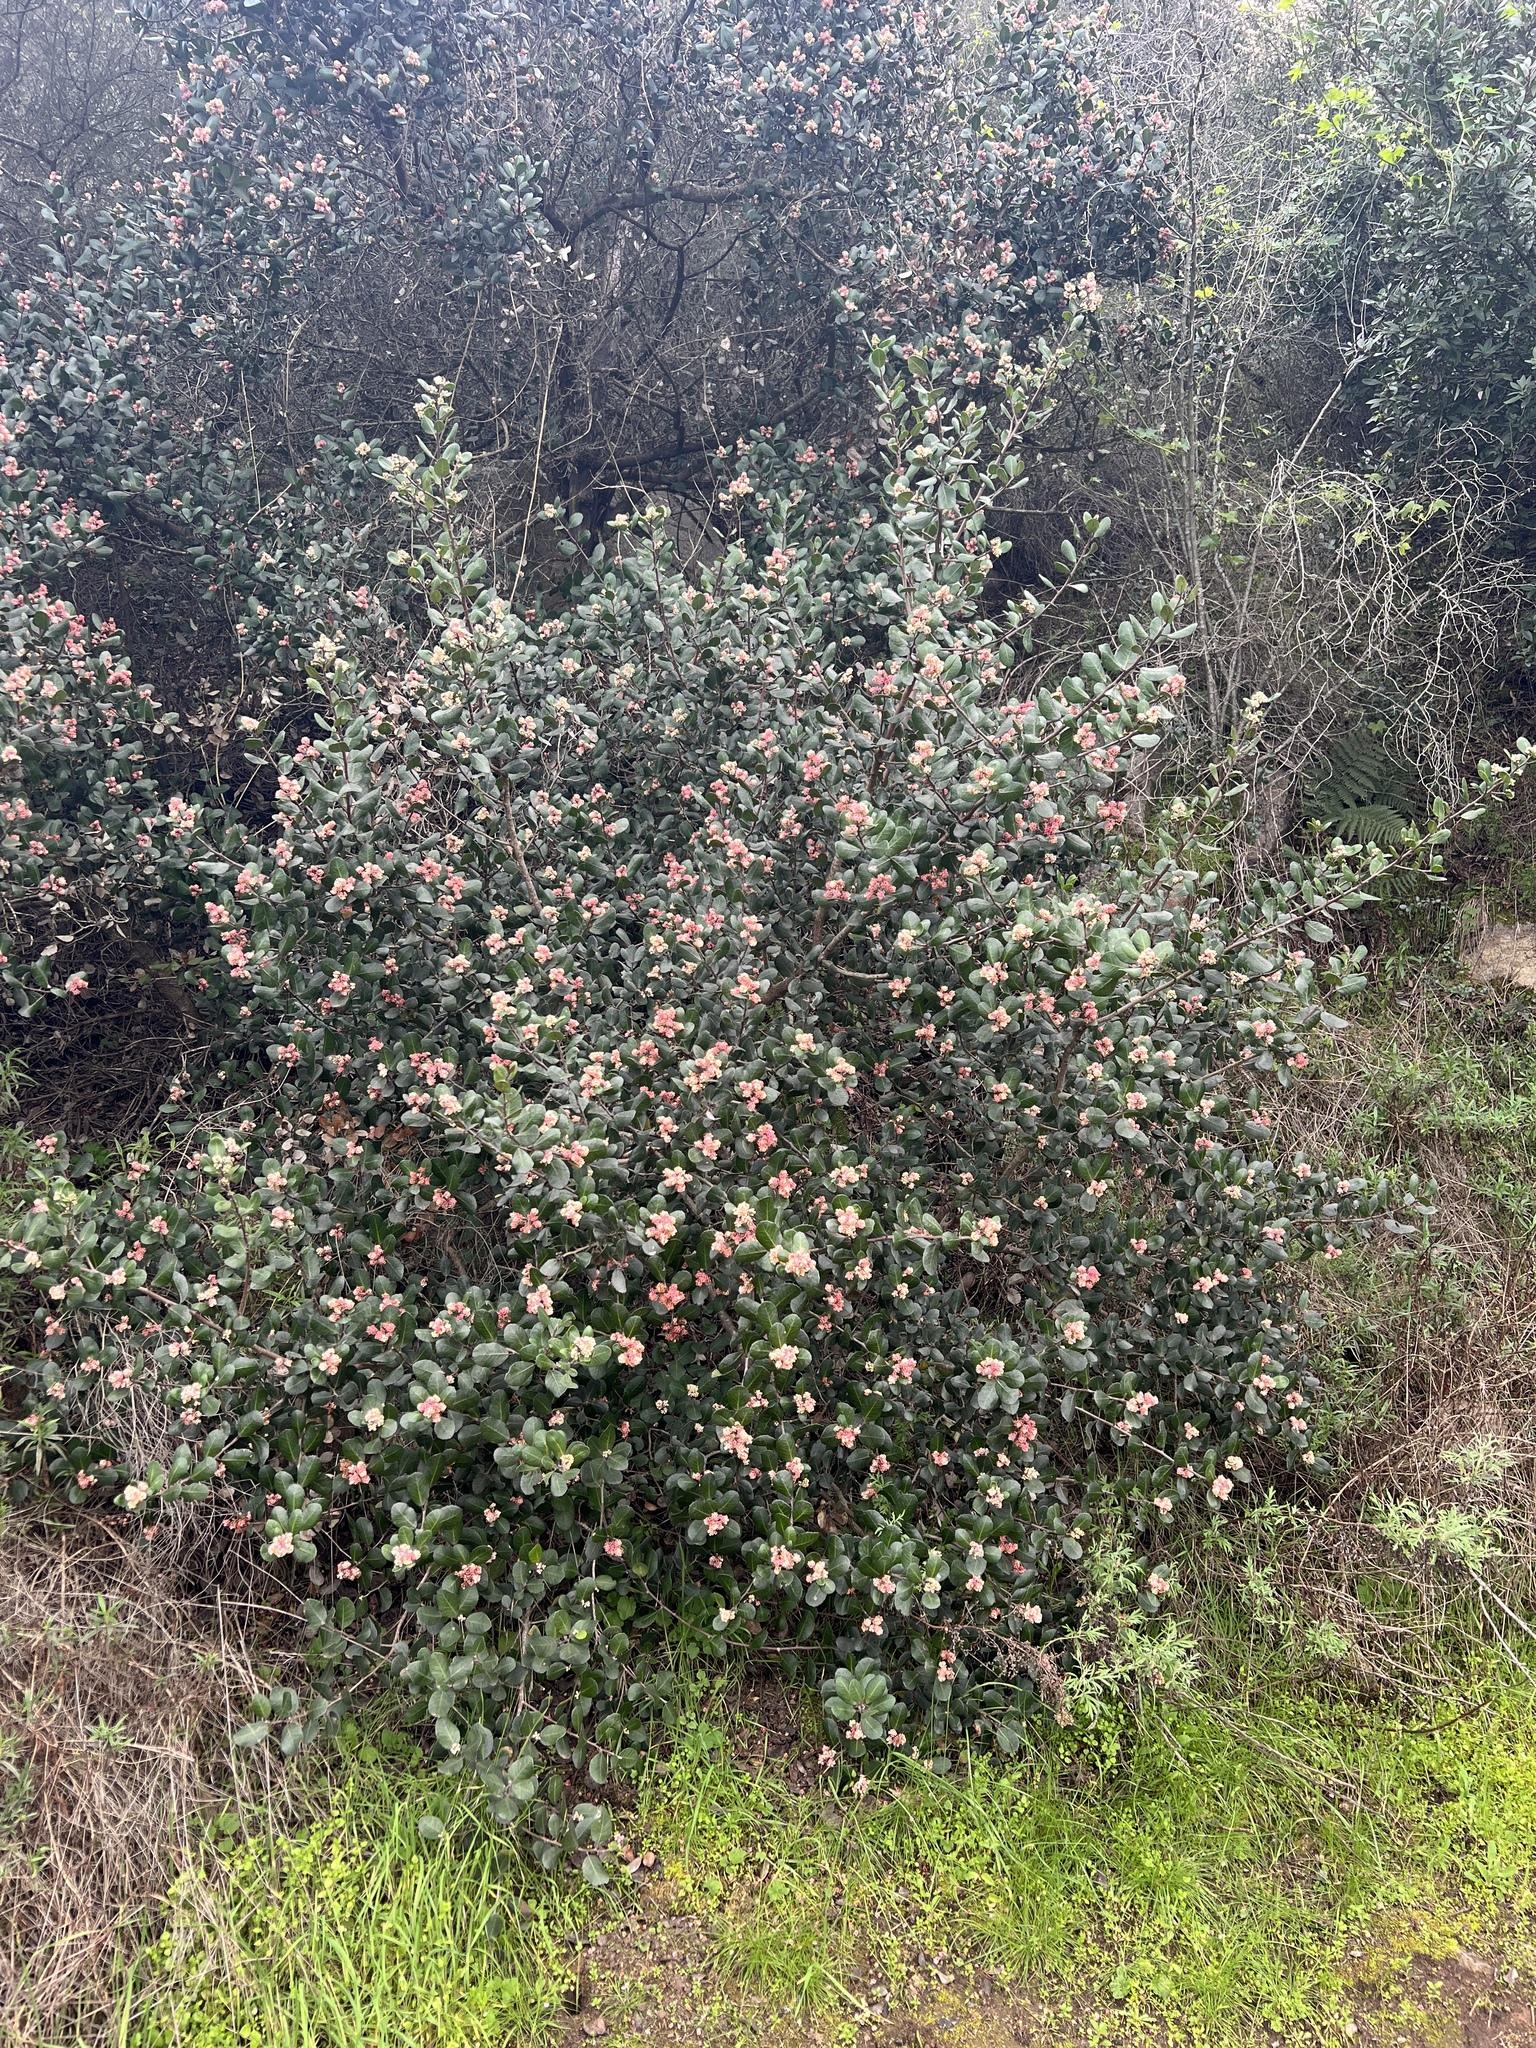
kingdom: Plantae
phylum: Tracheophyta
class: Magnoliopsida
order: Sapindales
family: Anacardiaceae
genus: Rhus
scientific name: Rhus integrifolia
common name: Lemonade sumac
